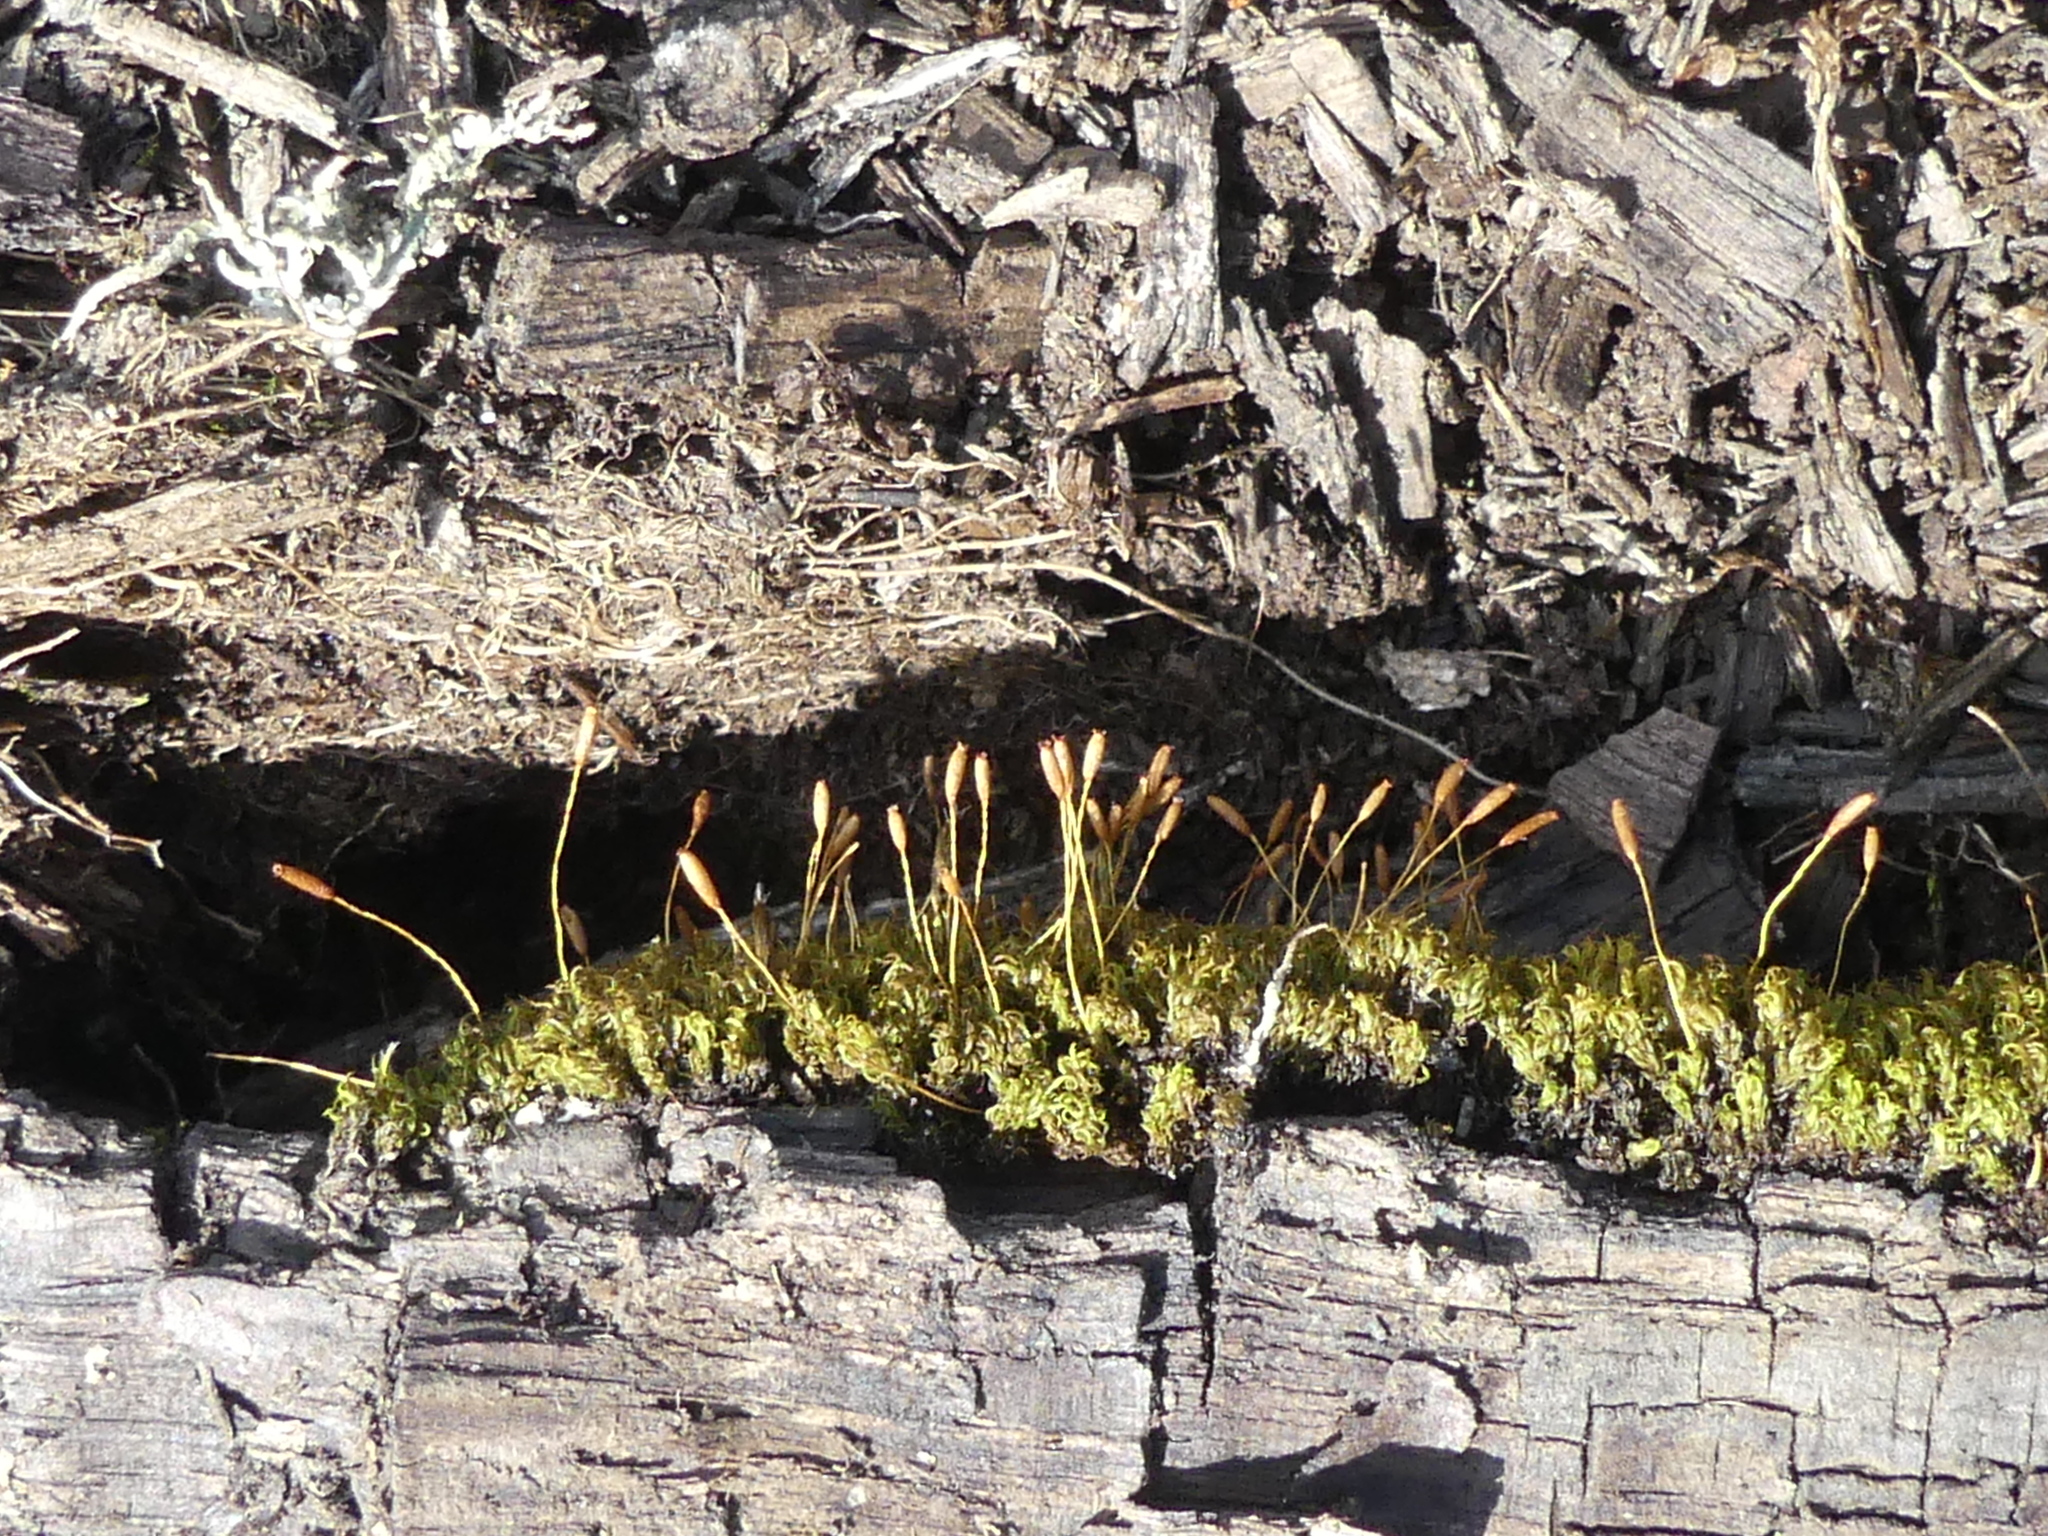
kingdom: Plantae
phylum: Bryophyta
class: Bryopsida
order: Dicranales
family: Rhabdoweisiaceae
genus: Dicranoweisia
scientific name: Dicranoweisia cirrata
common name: Common pincushion
